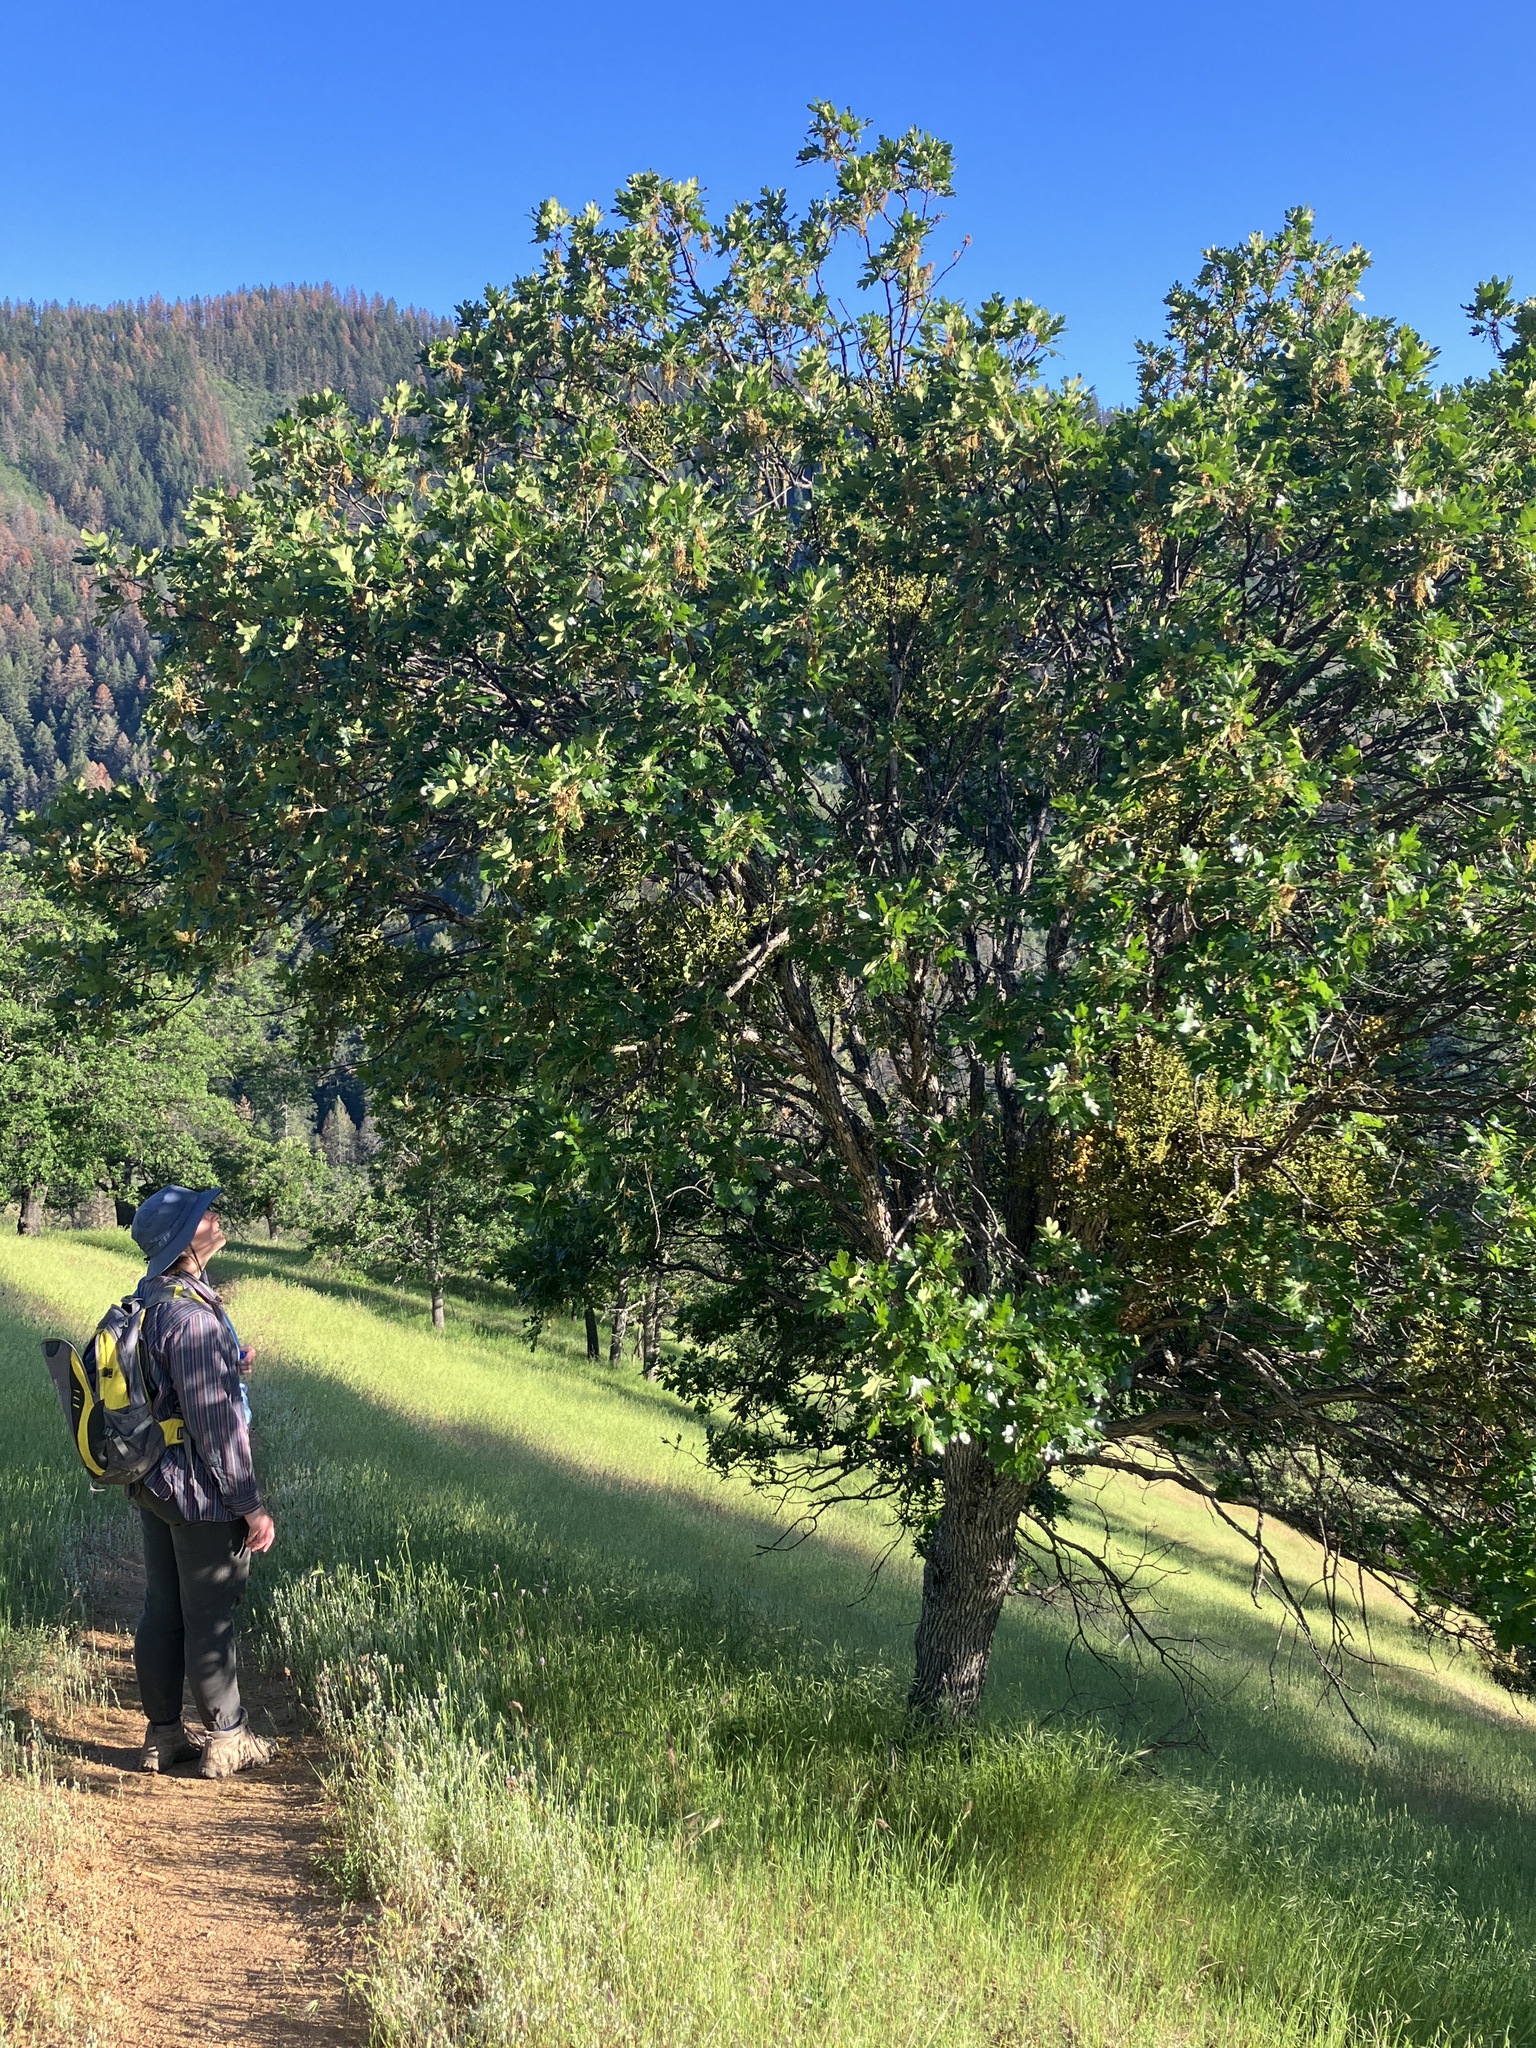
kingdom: Plantae
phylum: Tracheophyta
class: Magnoliopsida
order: Fagales
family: Fagaceae
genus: Quercus
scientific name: Quercus garryana
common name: Garry oak
